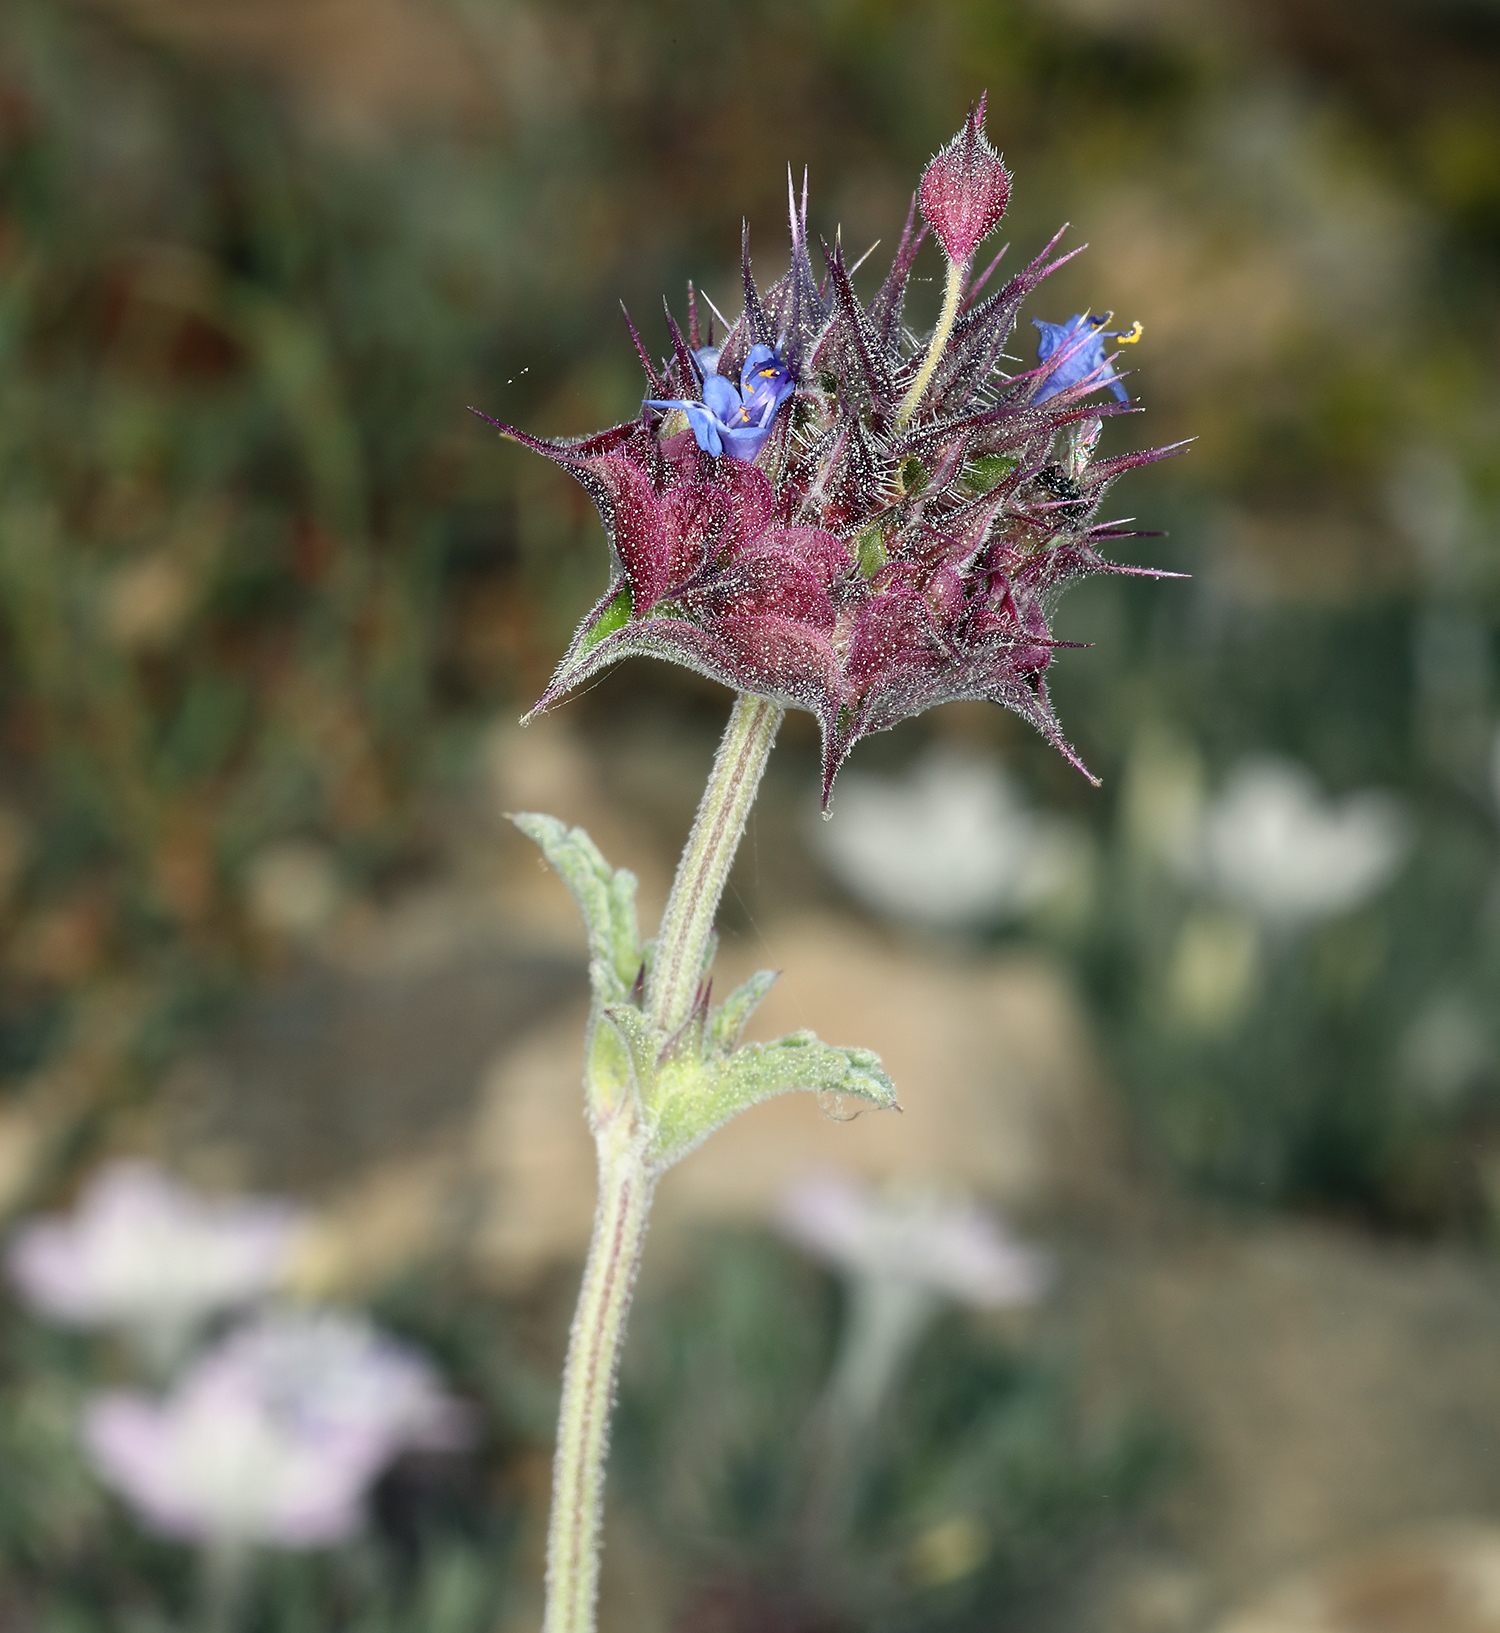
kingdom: Plantae
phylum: Tracheophyta
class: Magnoliopsida
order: Lamiales
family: Lamiaceae
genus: Salvia
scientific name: Salvia columbariae
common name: Chia
